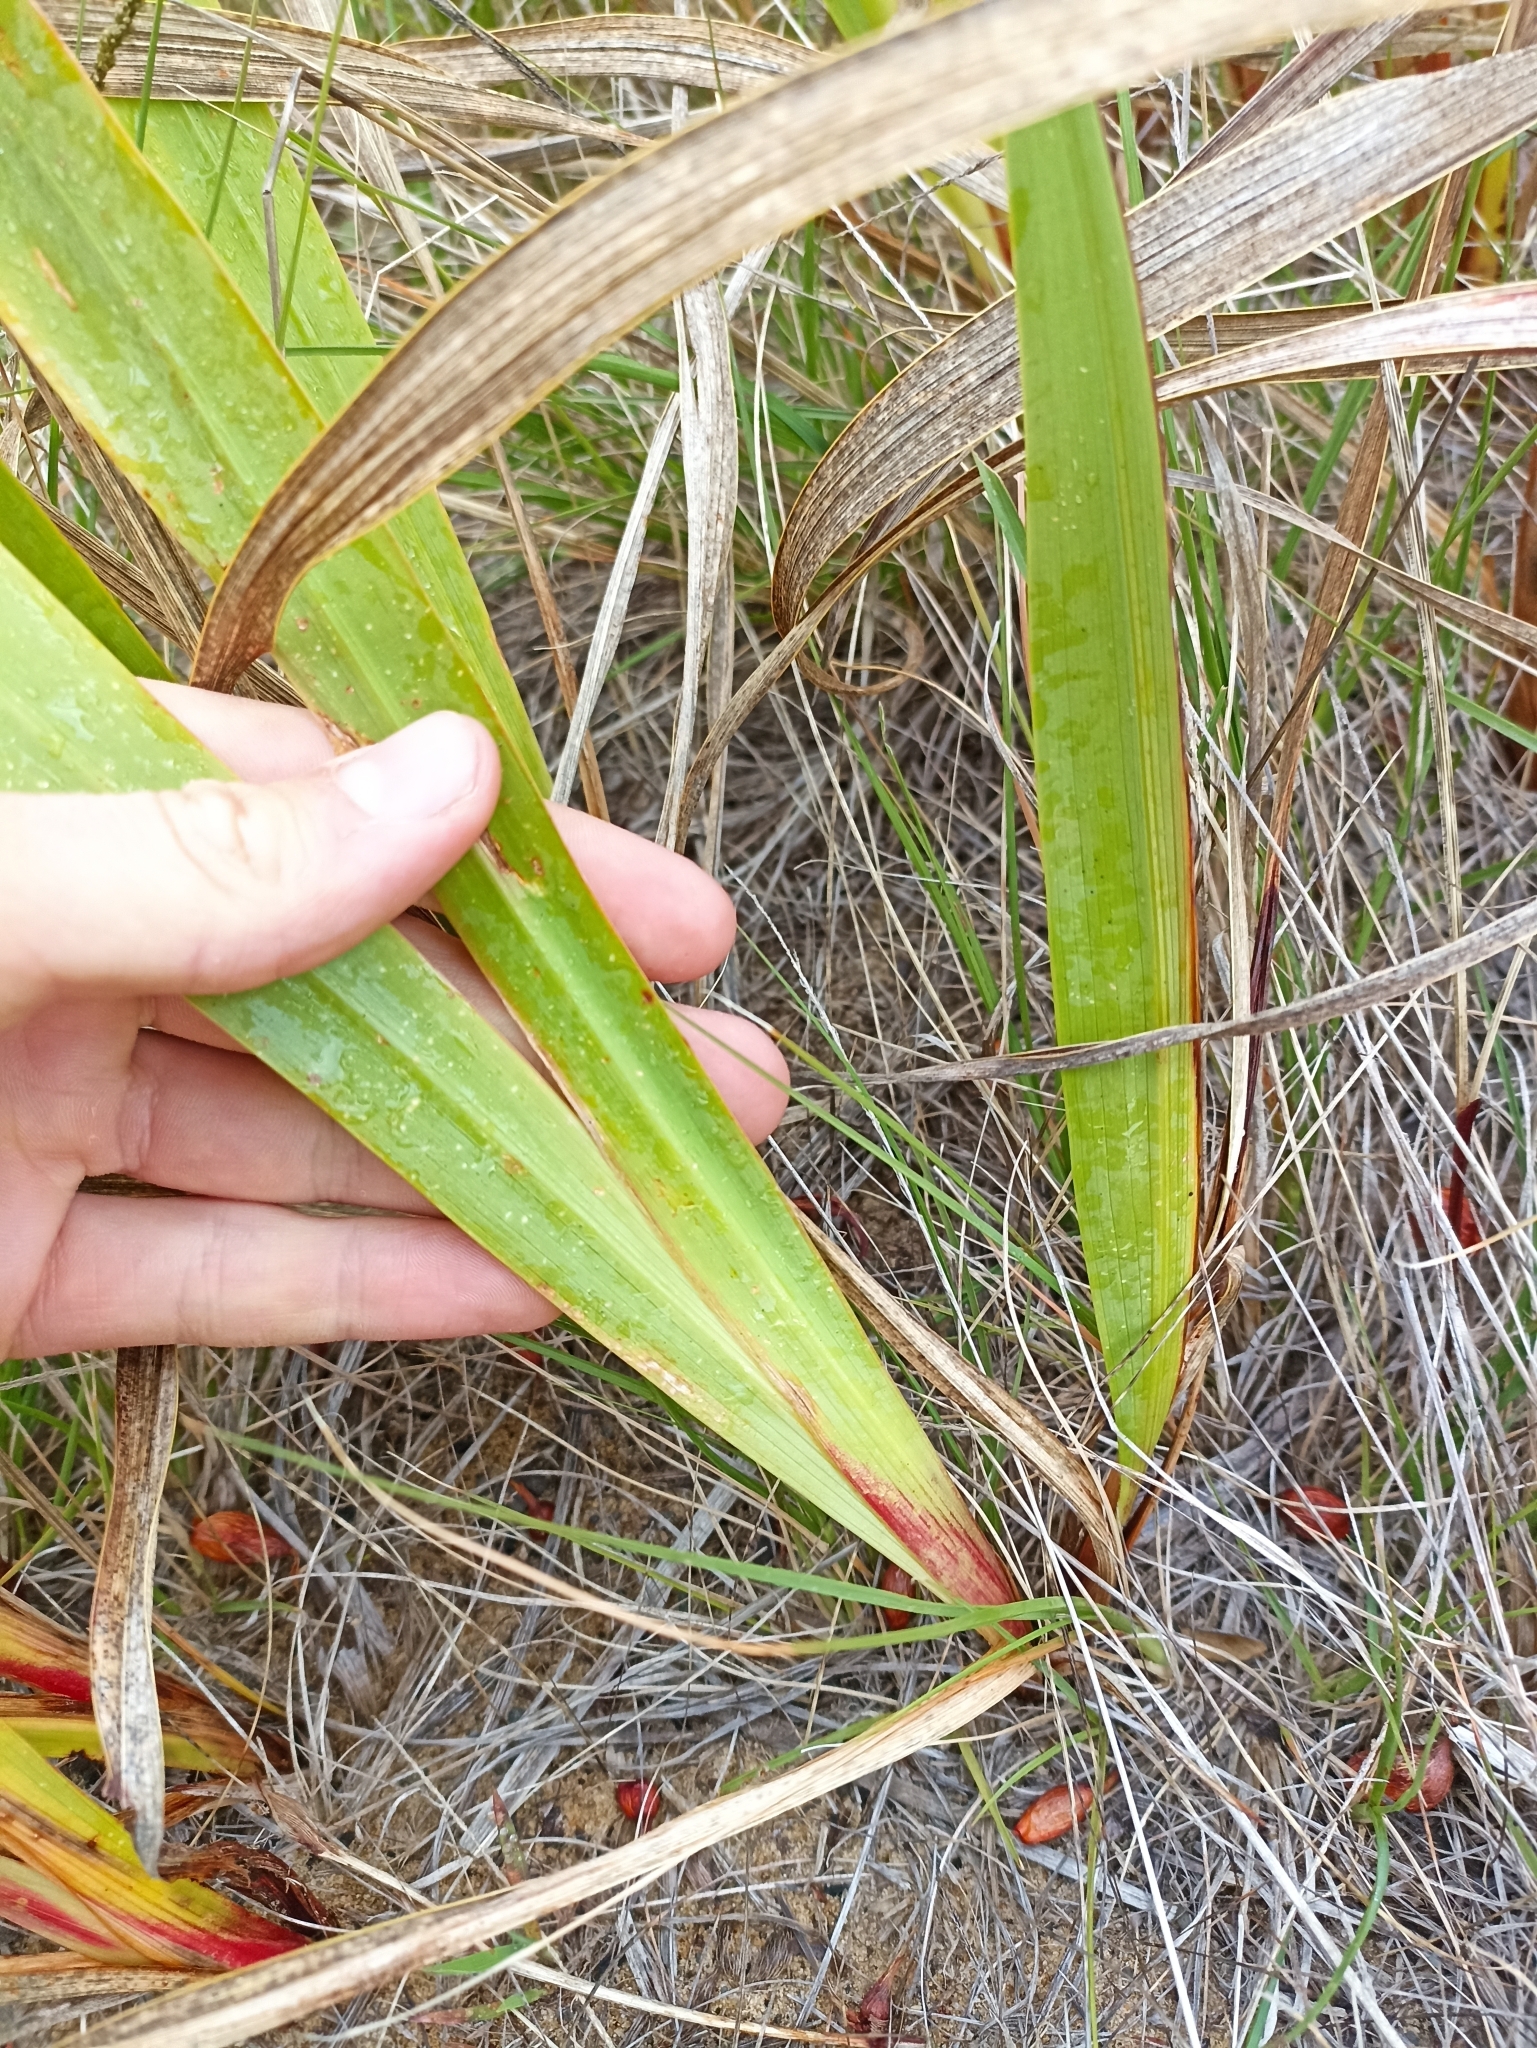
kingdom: Plantae
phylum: Tracheophyta
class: Liliopsida
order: Asparagales
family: Iridaceae
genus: Watsonia
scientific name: Watsonia meriana
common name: Bulbil bugle-lily
